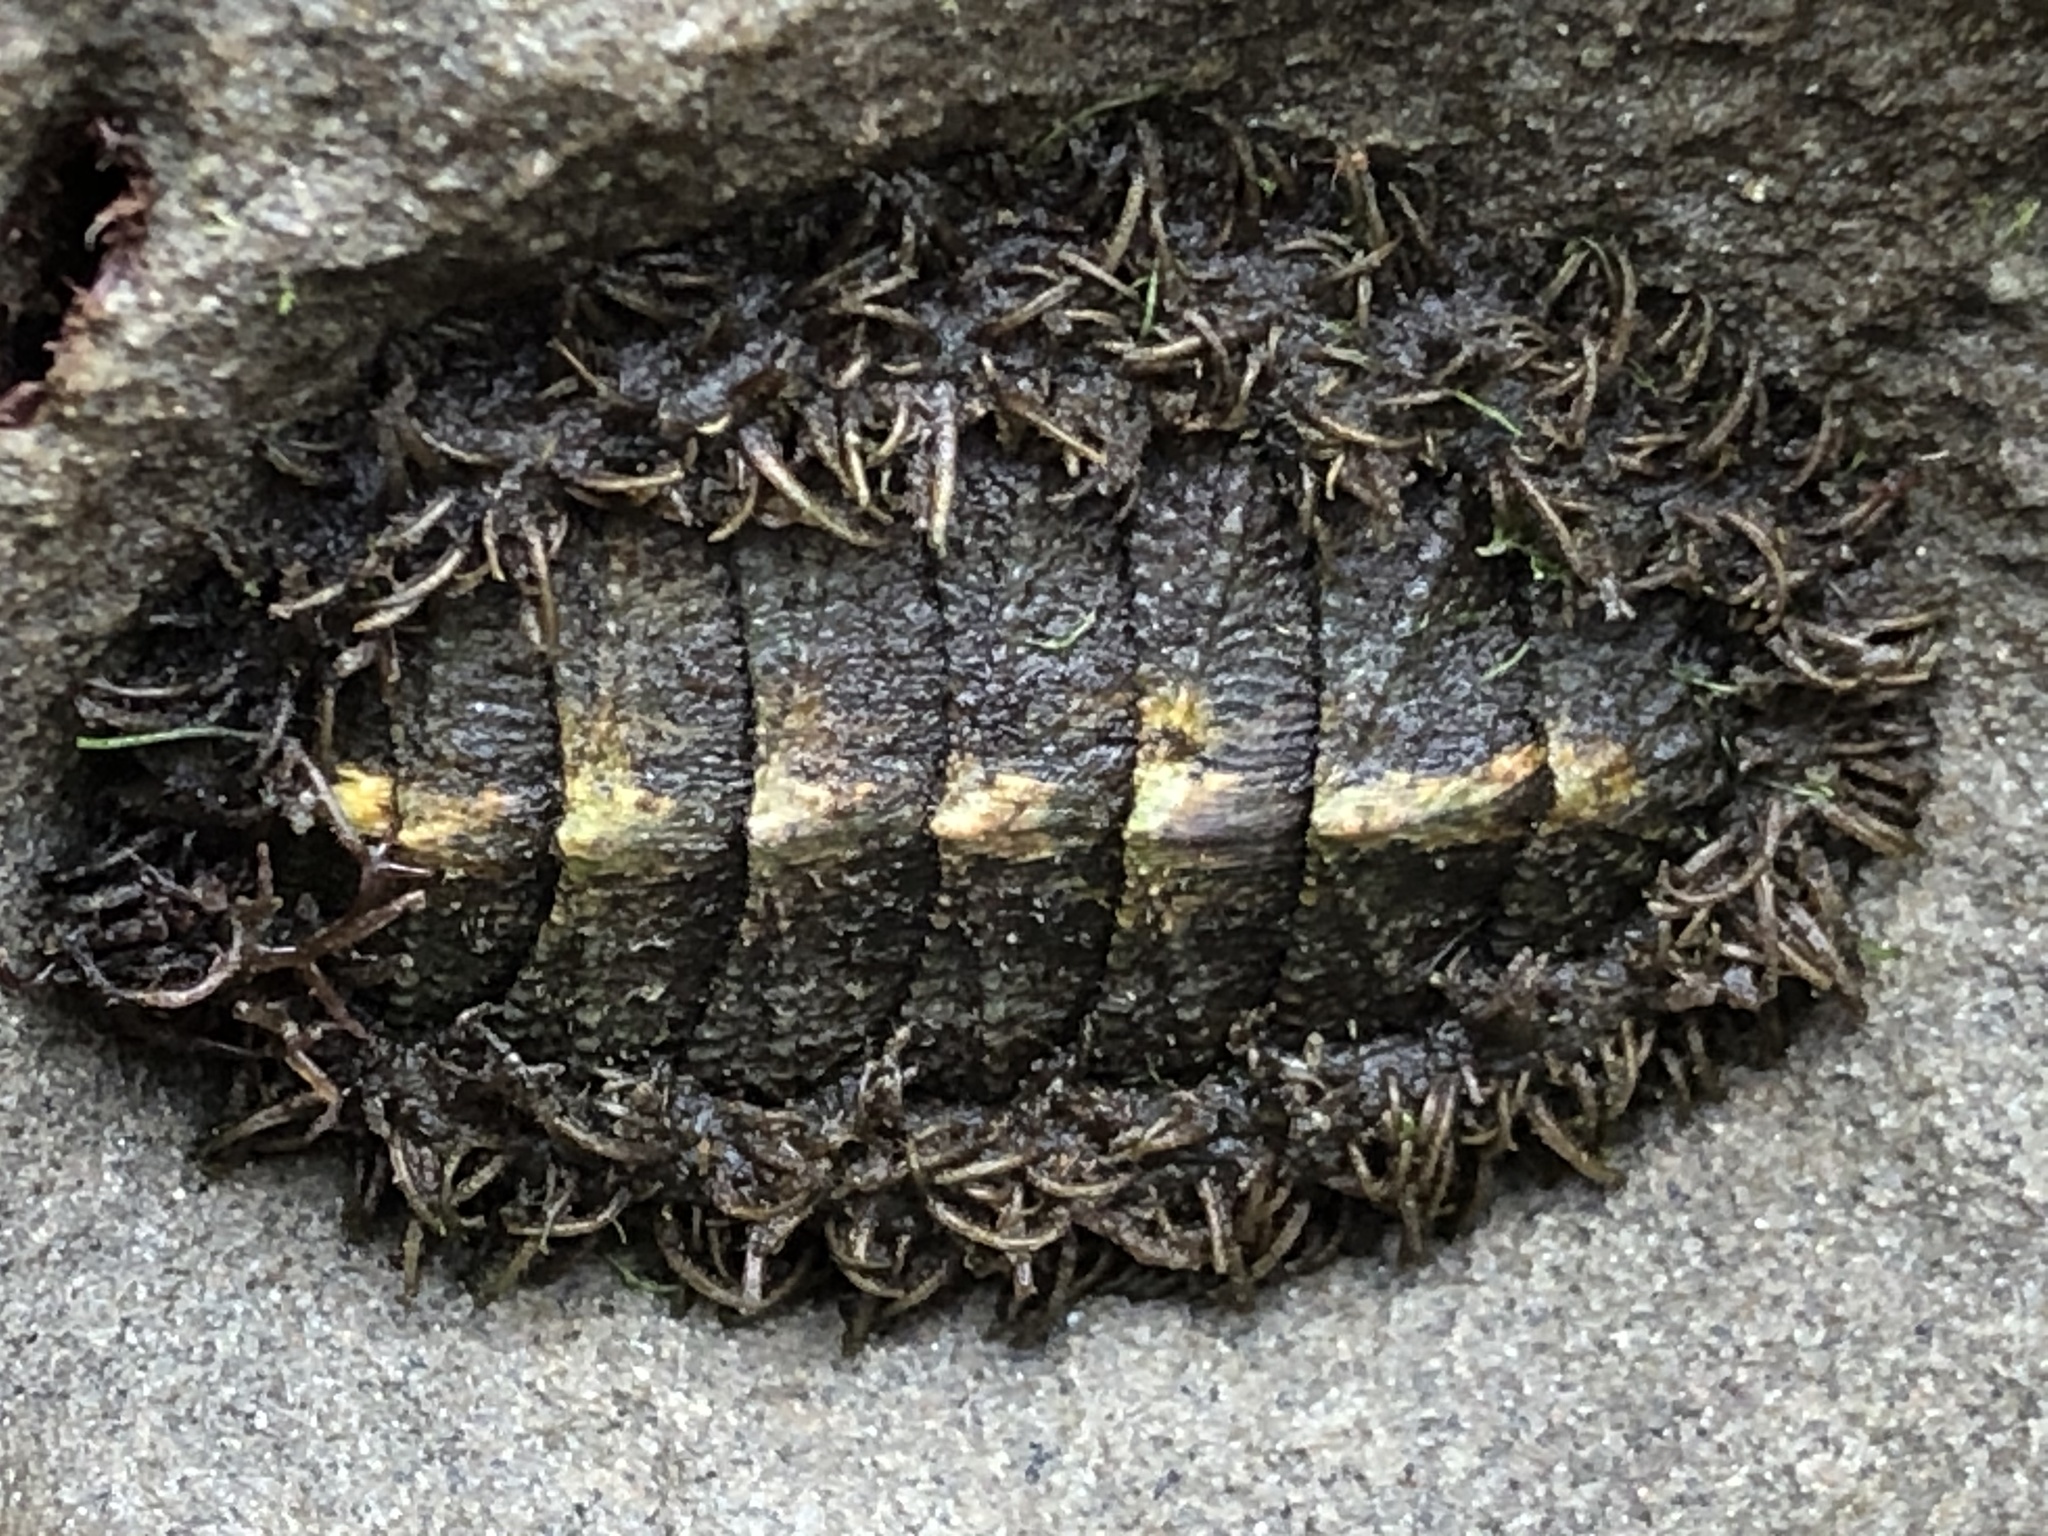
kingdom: Animalia
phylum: Mollusca
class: Polyplacophora
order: Chitonida
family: Mopaliidae
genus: Mopalia
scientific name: Mopalia muscosa
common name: Mossy chiton
